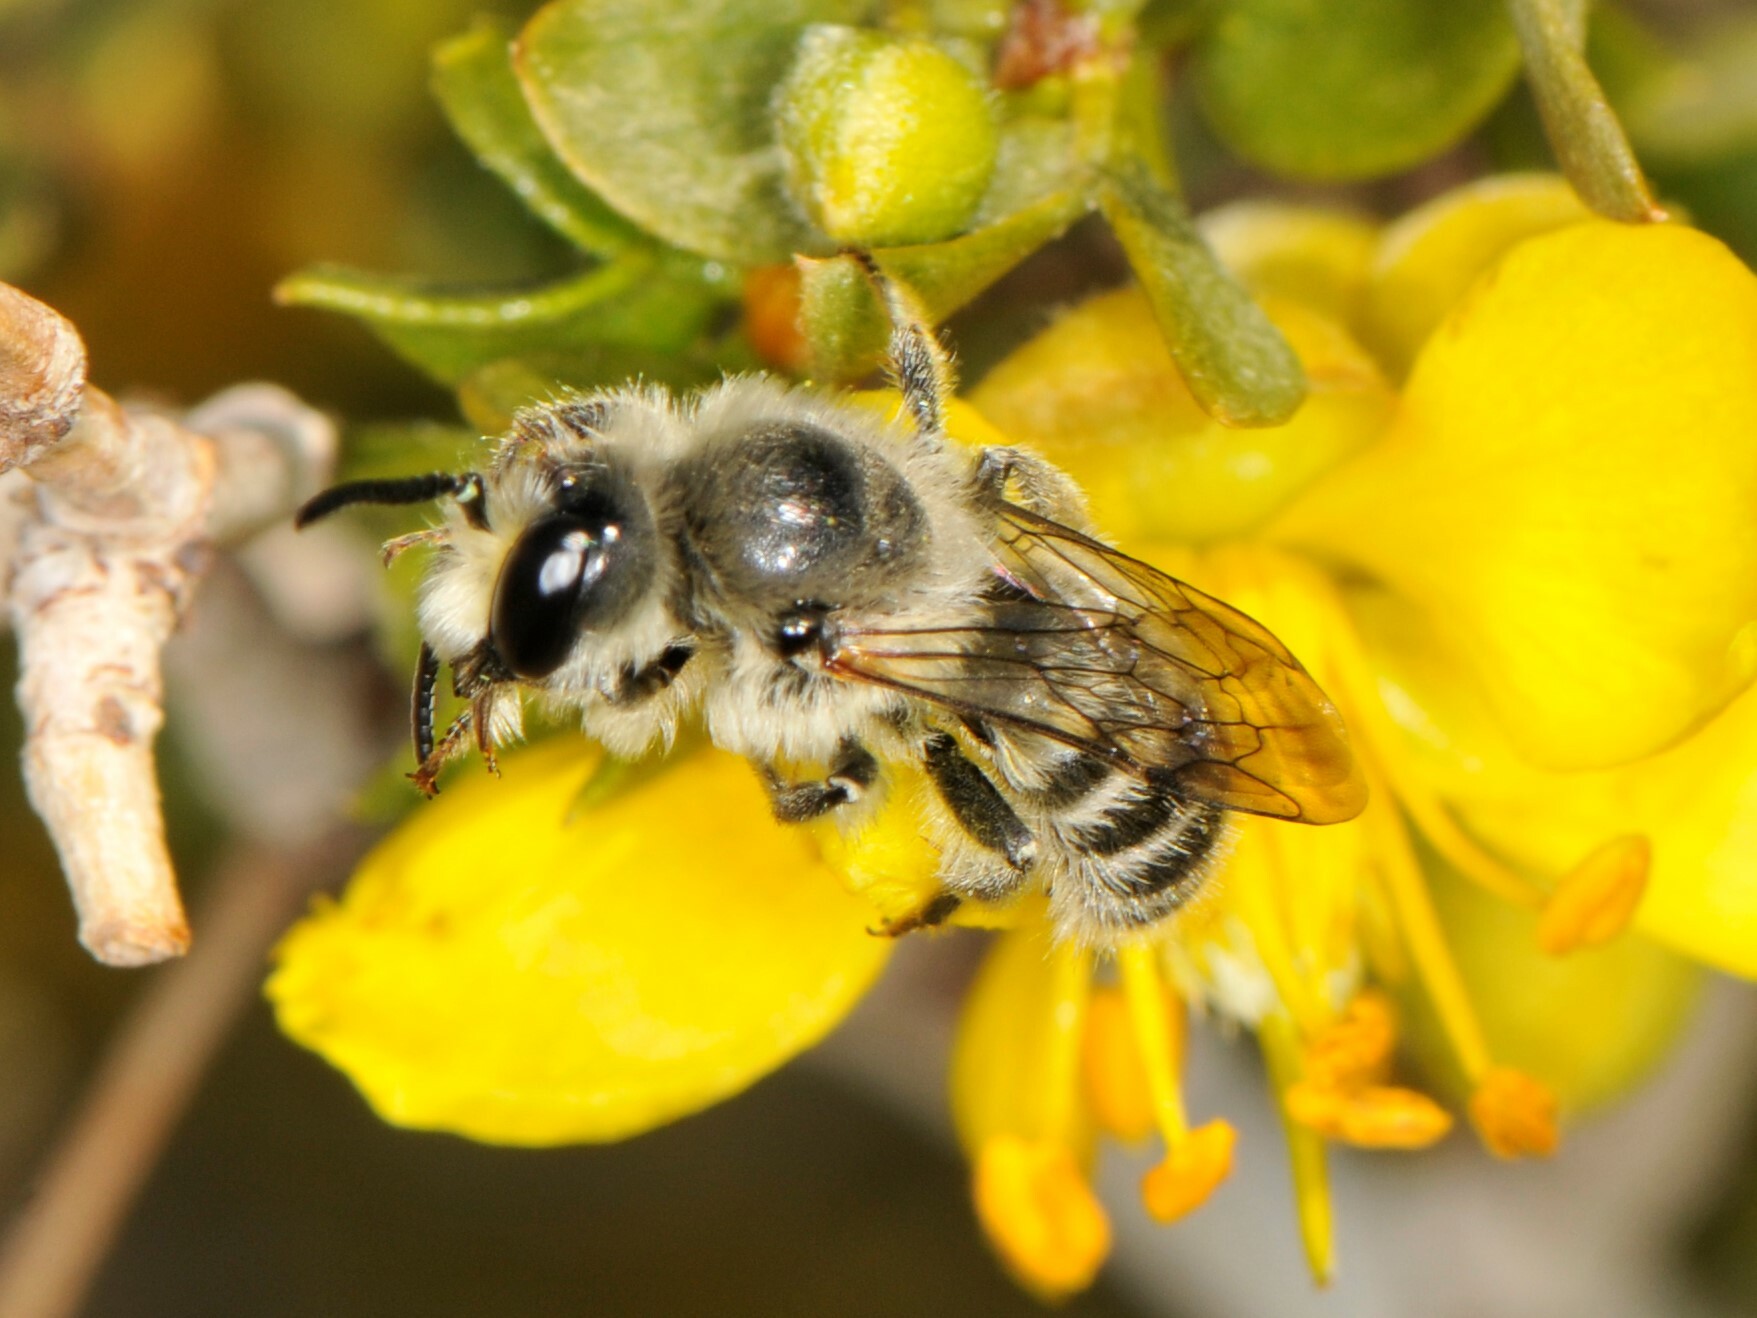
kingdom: Animalia
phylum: Arthropoda
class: Insecta
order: Hymenoptera
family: Megachilidae
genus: Hoplitis
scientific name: Hoplitis biscutellae
